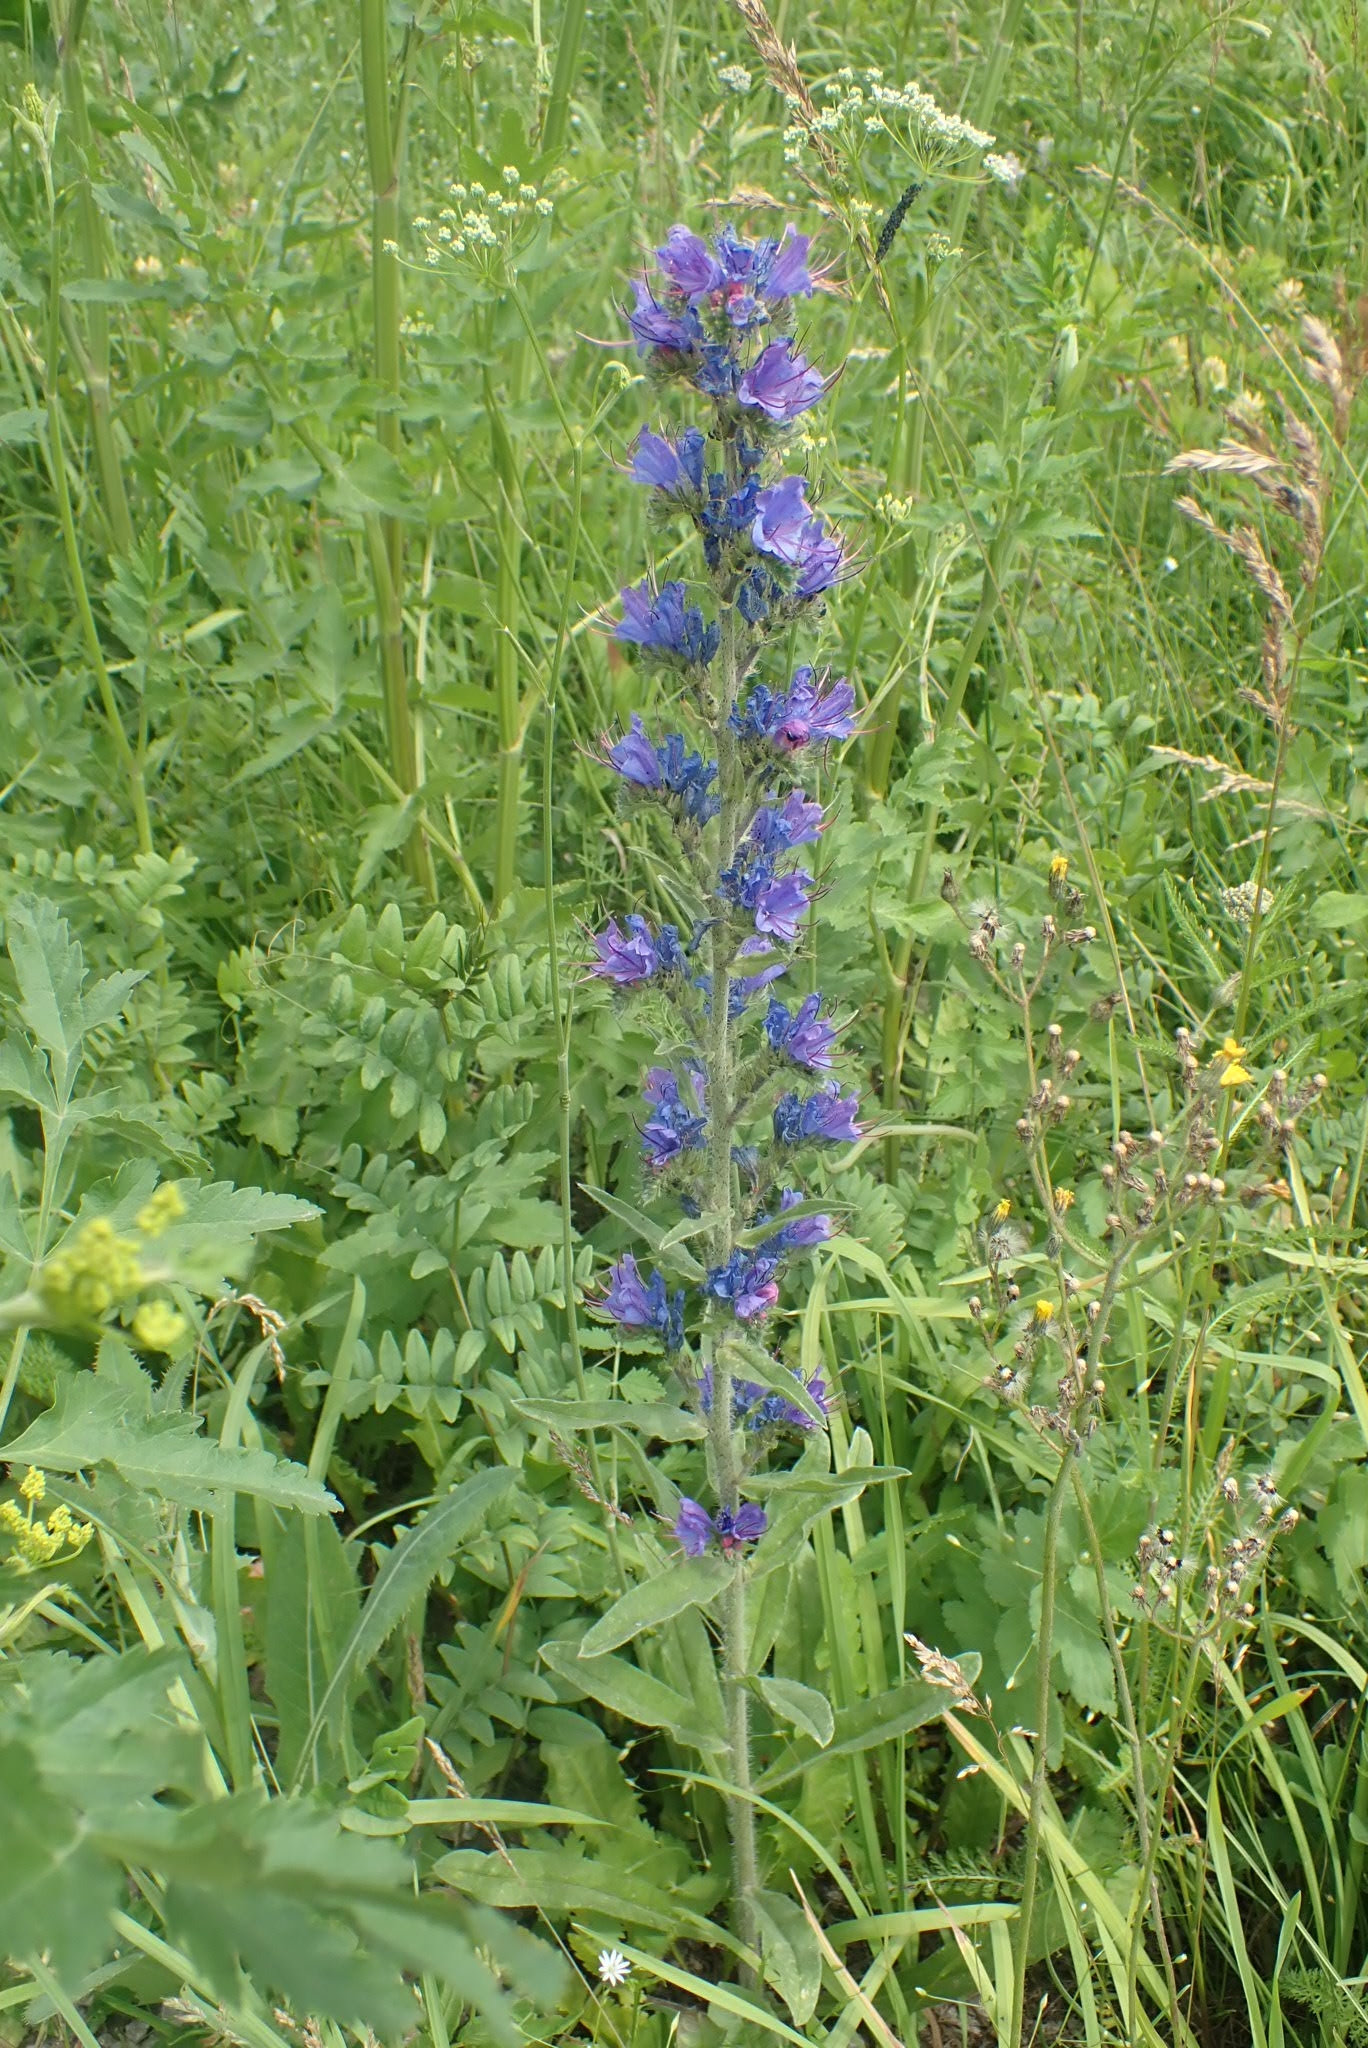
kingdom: Plantae
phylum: Tracheophyta
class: Magnoliopsida
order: Boraginales
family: Boraginaceae
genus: Echium
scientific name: Echium vulgare
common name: Common viper's bugloss
